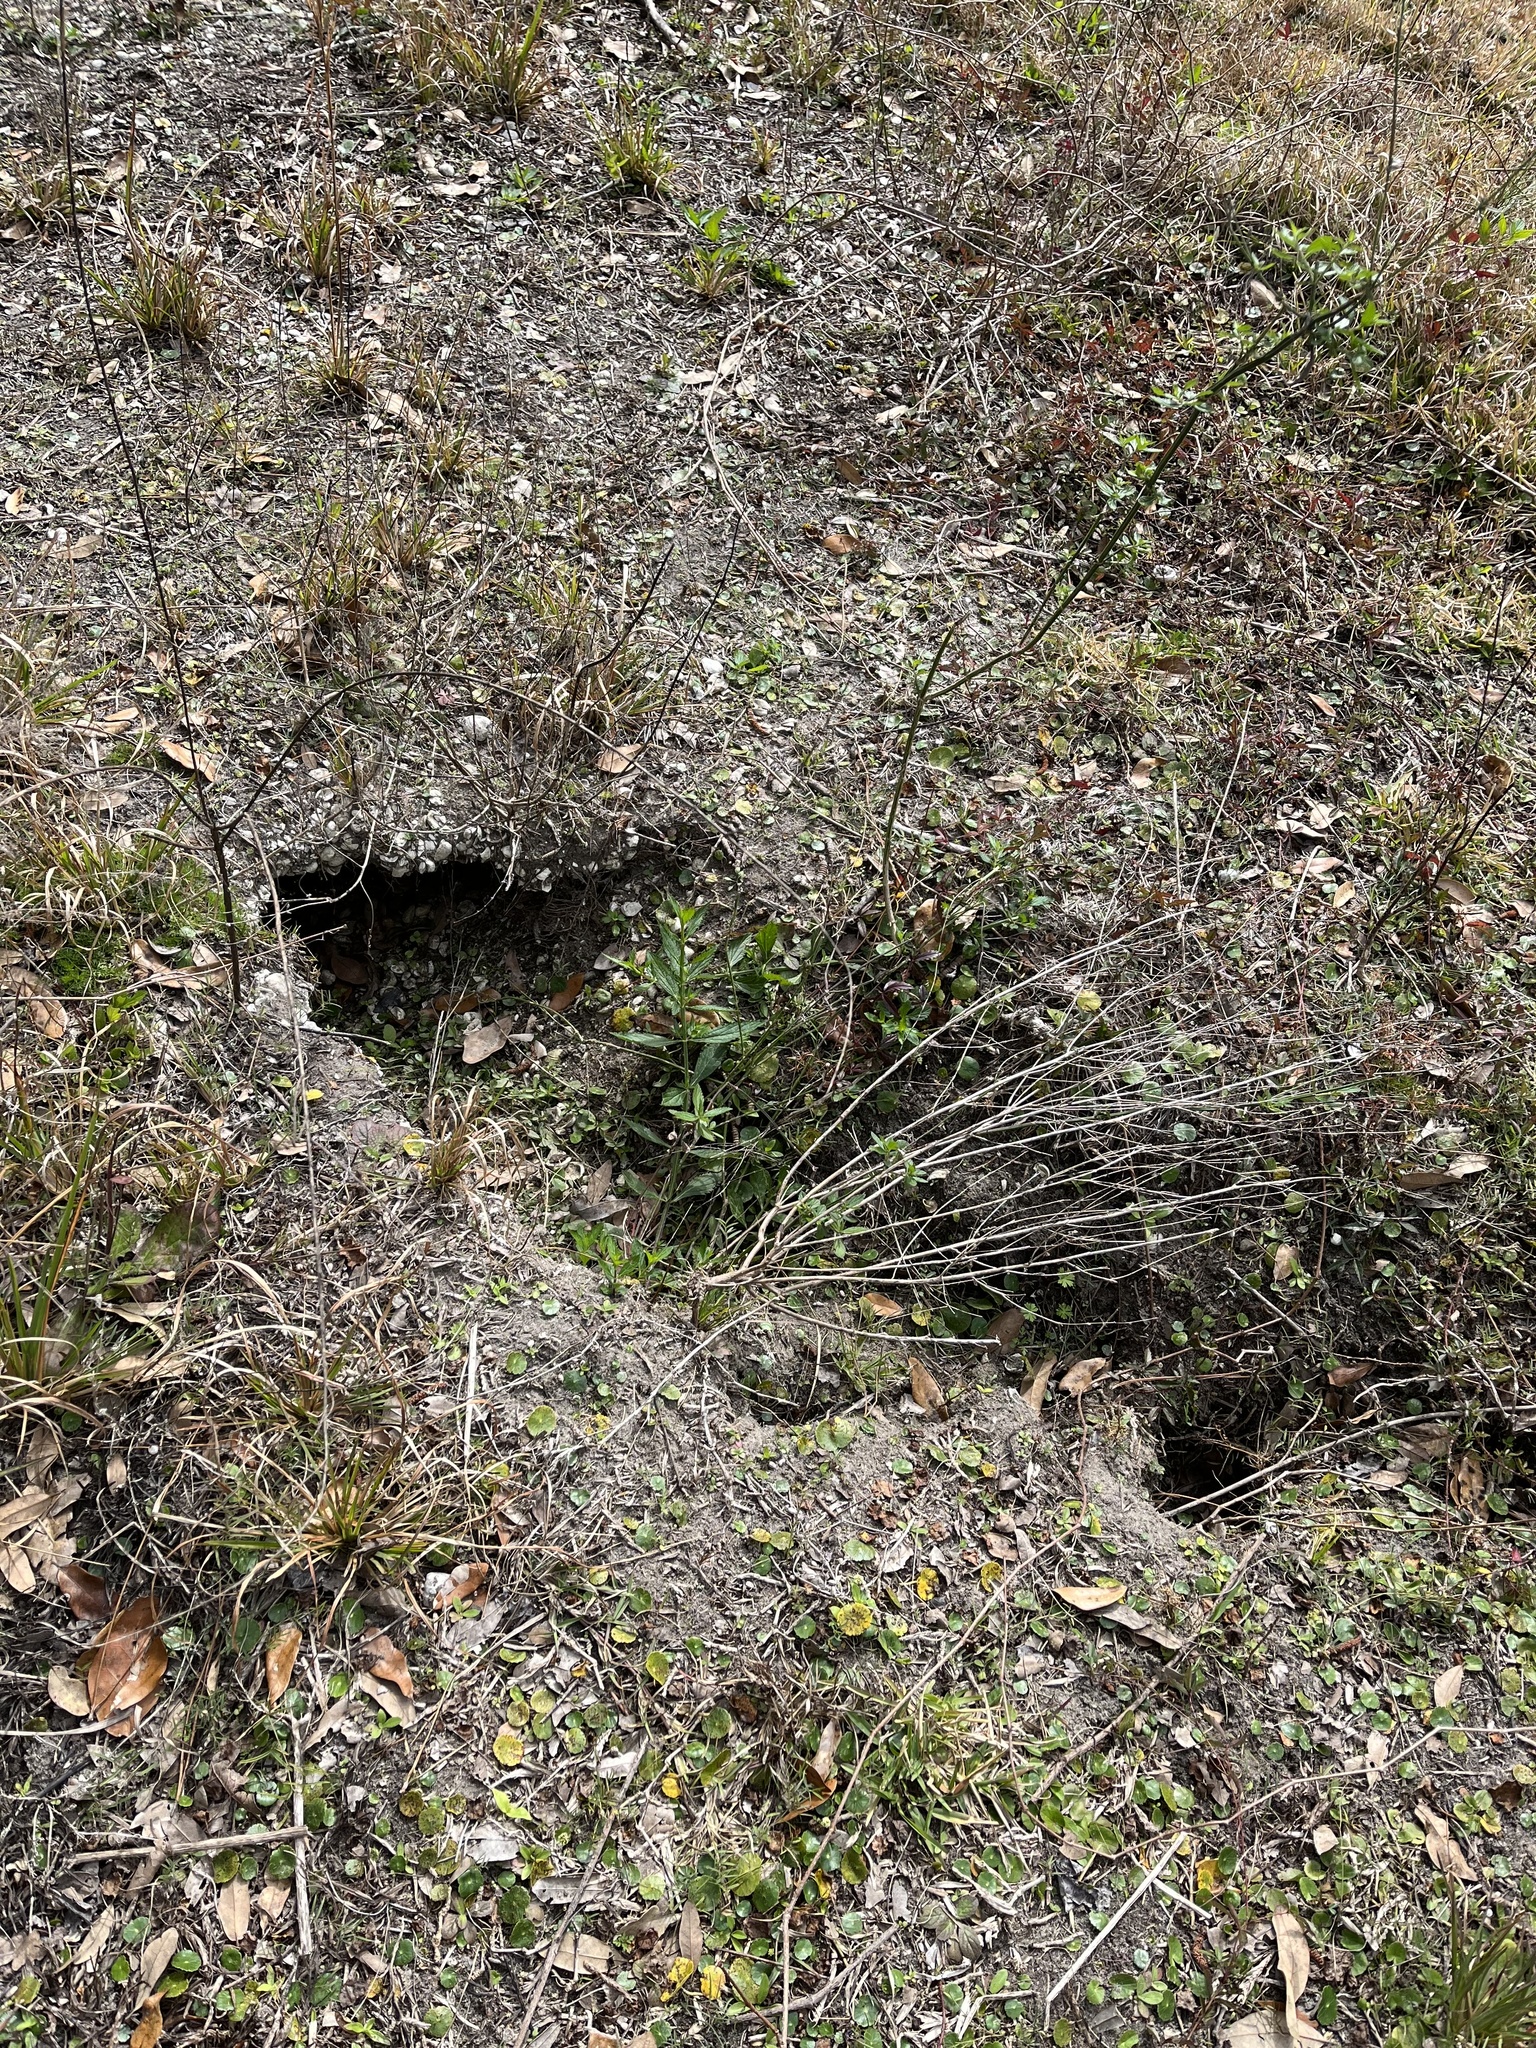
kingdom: Animalia
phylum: Chordata
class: Testudines
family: Testudinidae
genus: Gopherus
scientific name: Gopherus polyphemus
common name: Florida gopher tortoise
